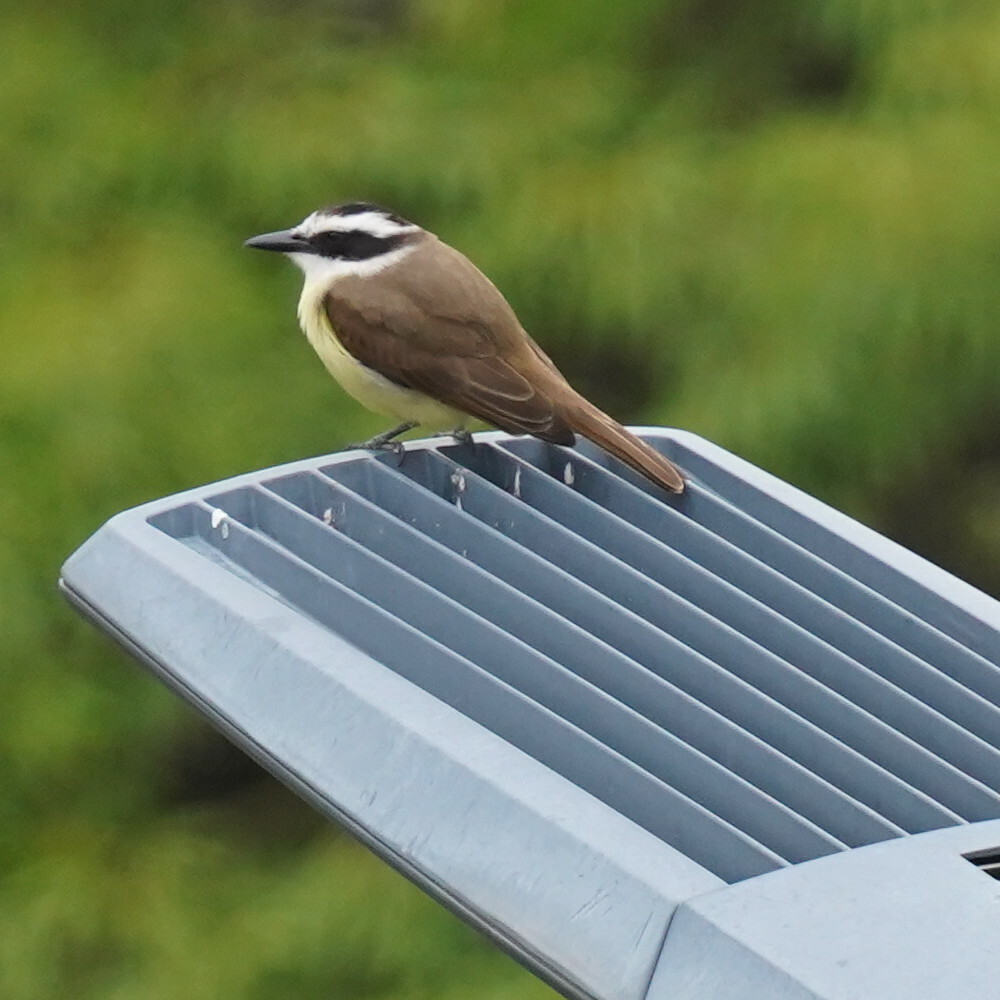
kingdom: Animalia
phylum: Chordata
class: Aves
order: Passeriformes
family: Tyrannidae
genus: Pitangus
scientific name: Pitangus sulphuratus
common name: Great kiskadee
